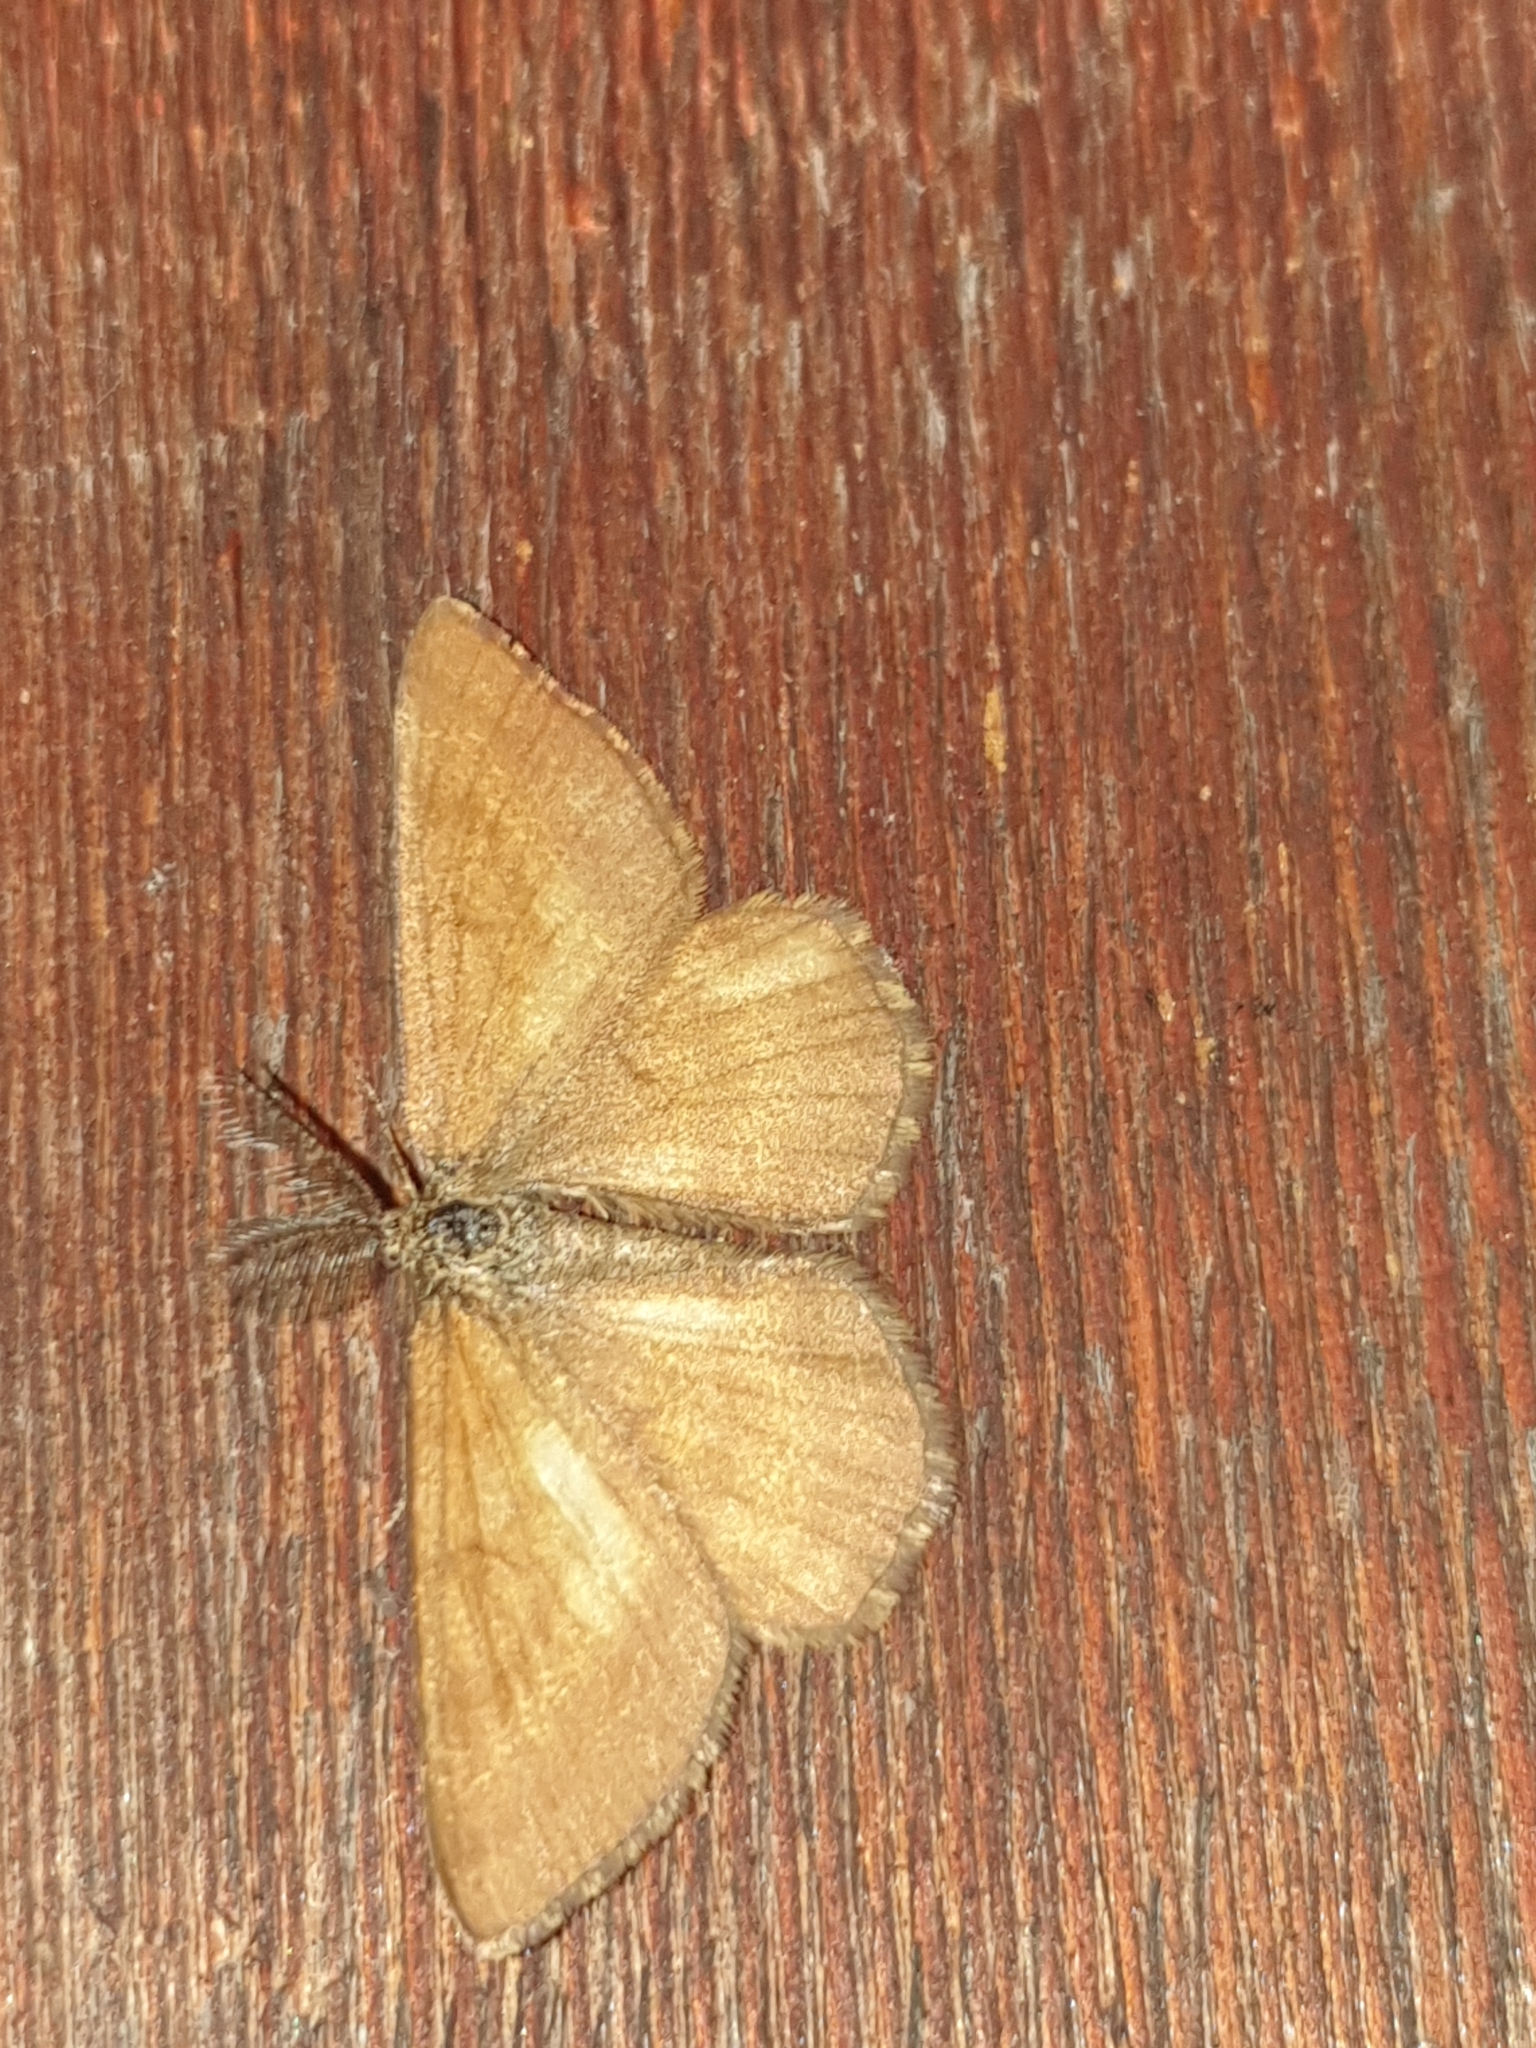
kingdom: Animalia
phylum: Arthropoda
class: Insecta
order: Lepidoptera
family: Geometridae
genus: Ematurga
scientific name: Ematurga atomaria
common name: Common heath
